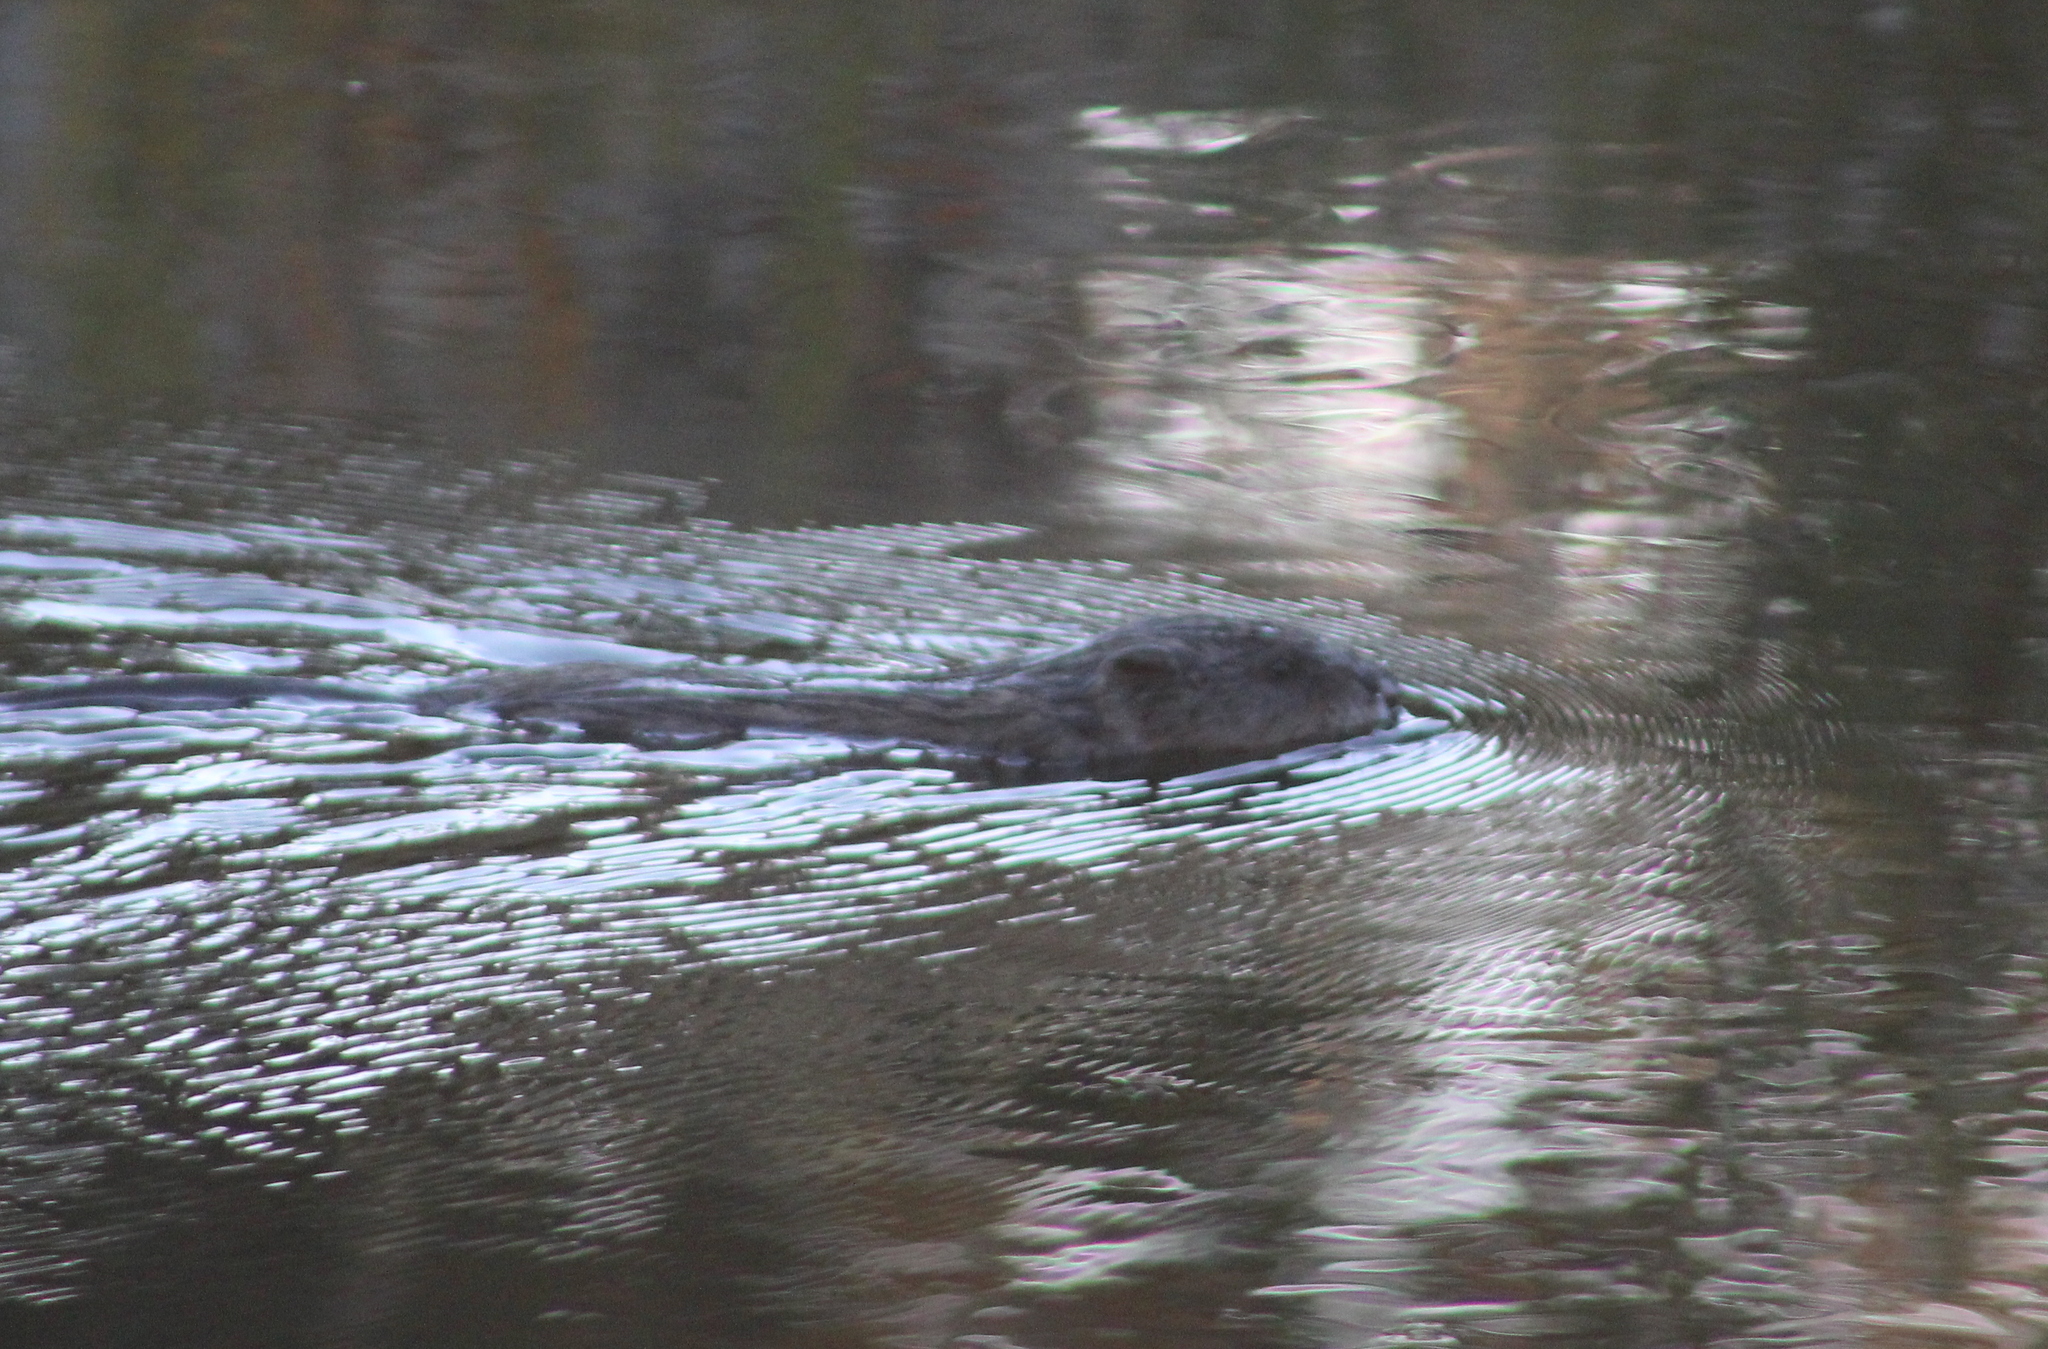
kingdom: Animalia
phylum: Chordata
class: Mammalia
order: Rodentia
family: Cricetidae
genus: Ondatra
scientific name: Ondatra zibethicus
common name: Muskrat
